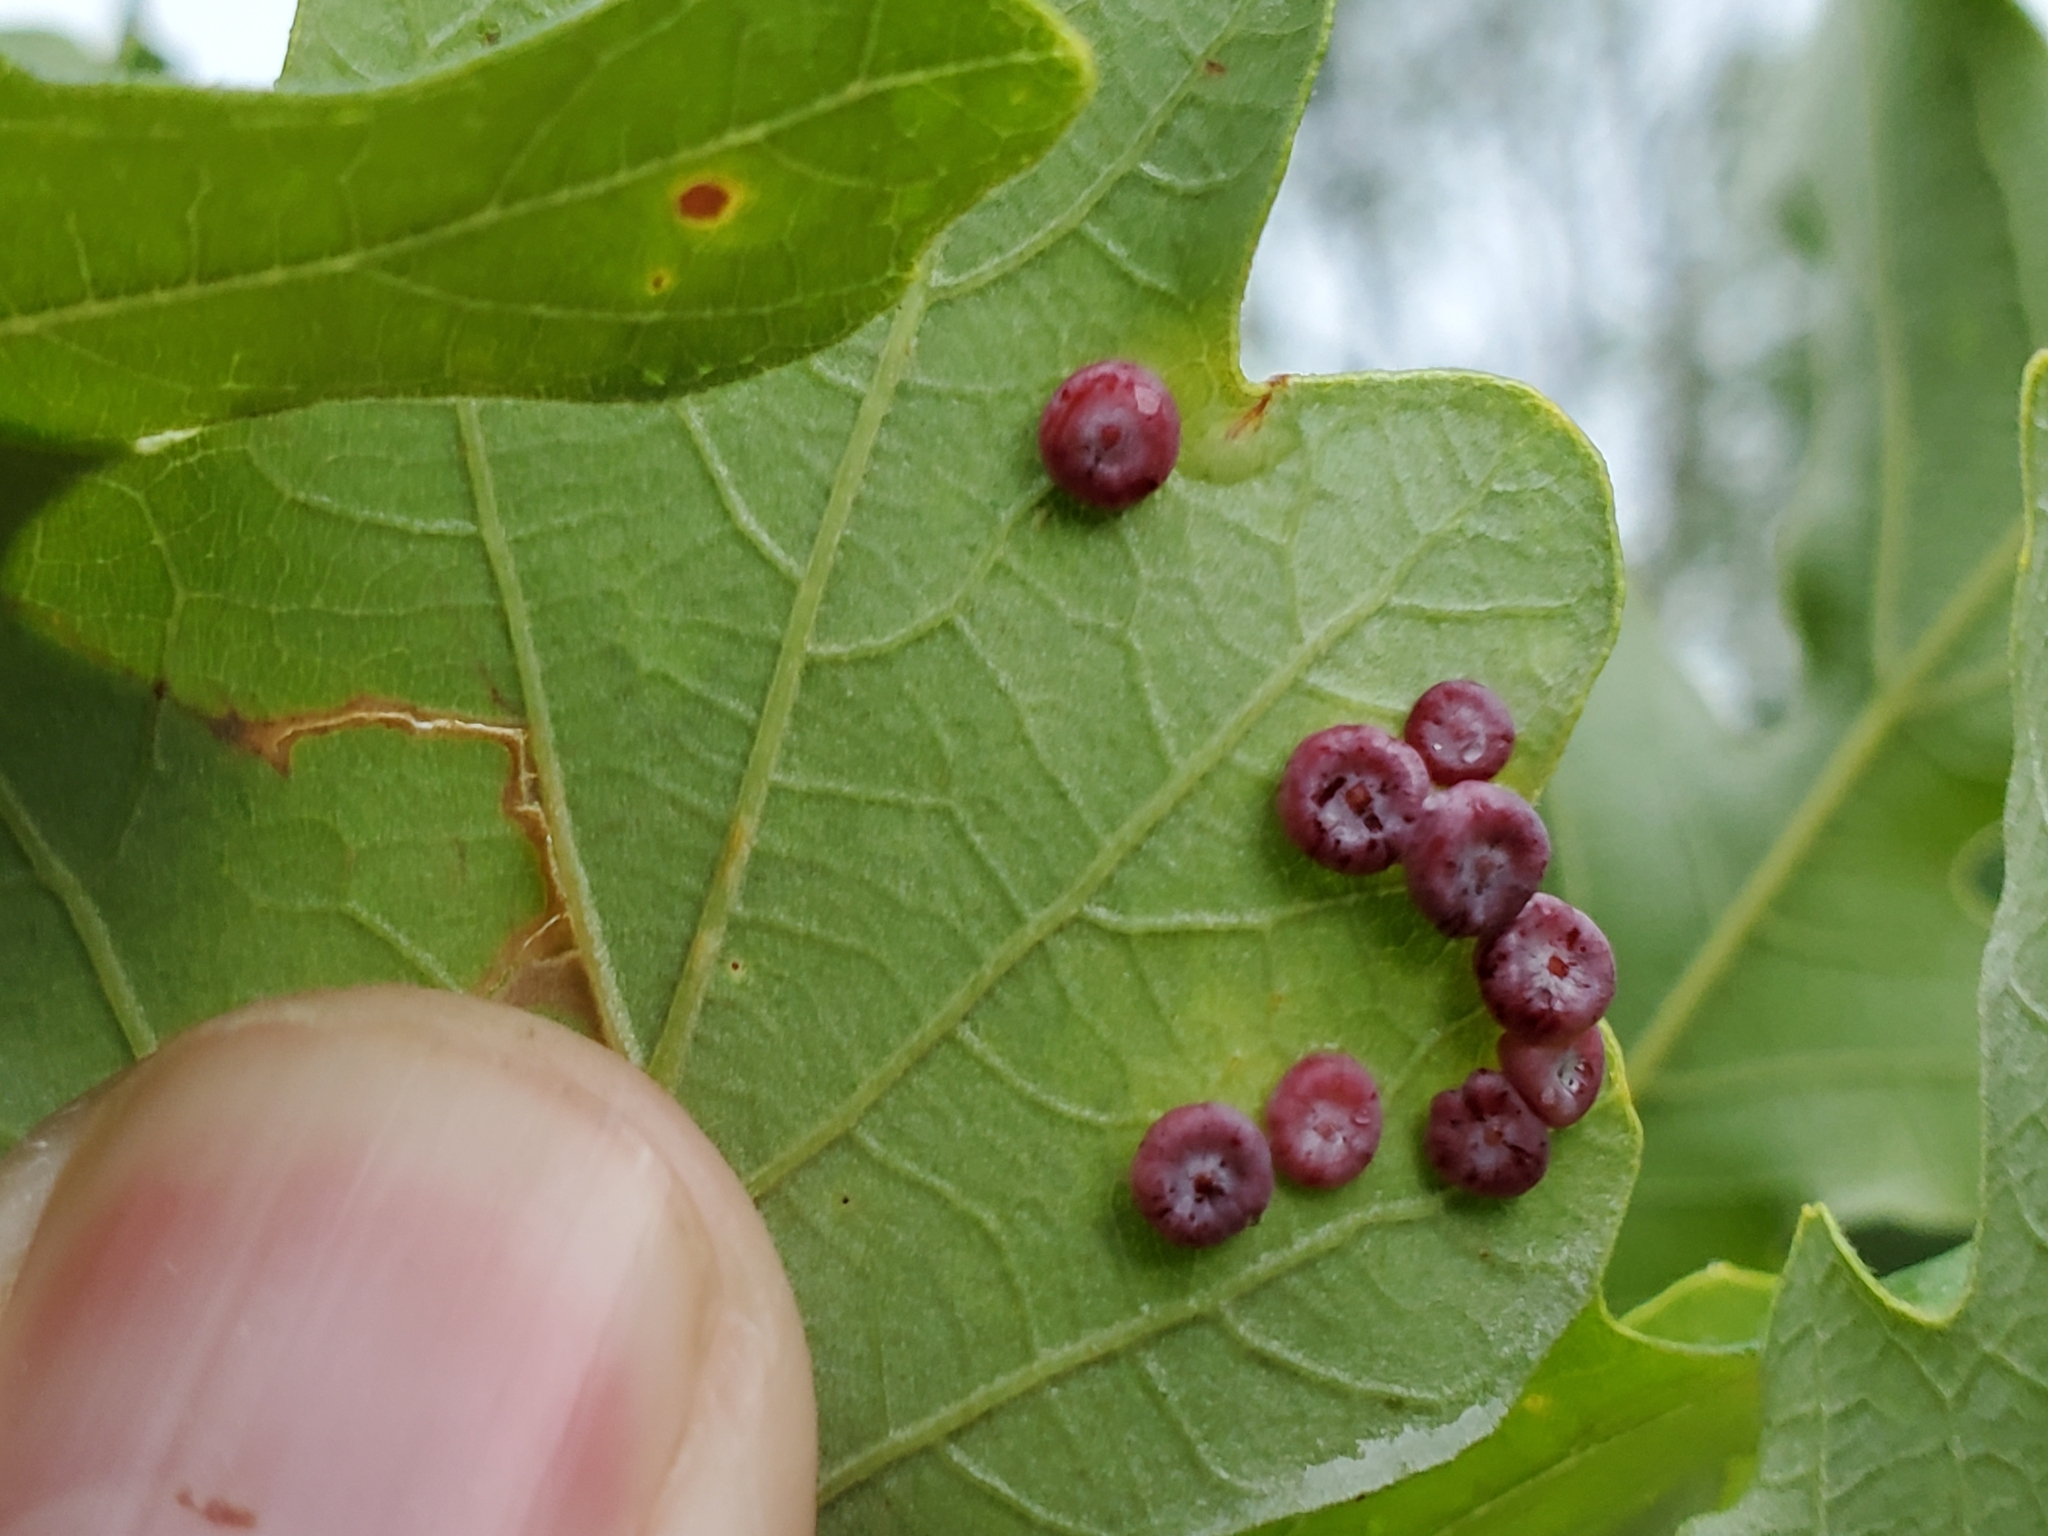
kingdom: Animalia
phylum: Arthropoda
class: Insecta
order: Hymenoptera
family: Cynipidae
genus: Phylloteras
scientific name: Phylloteras poculum
